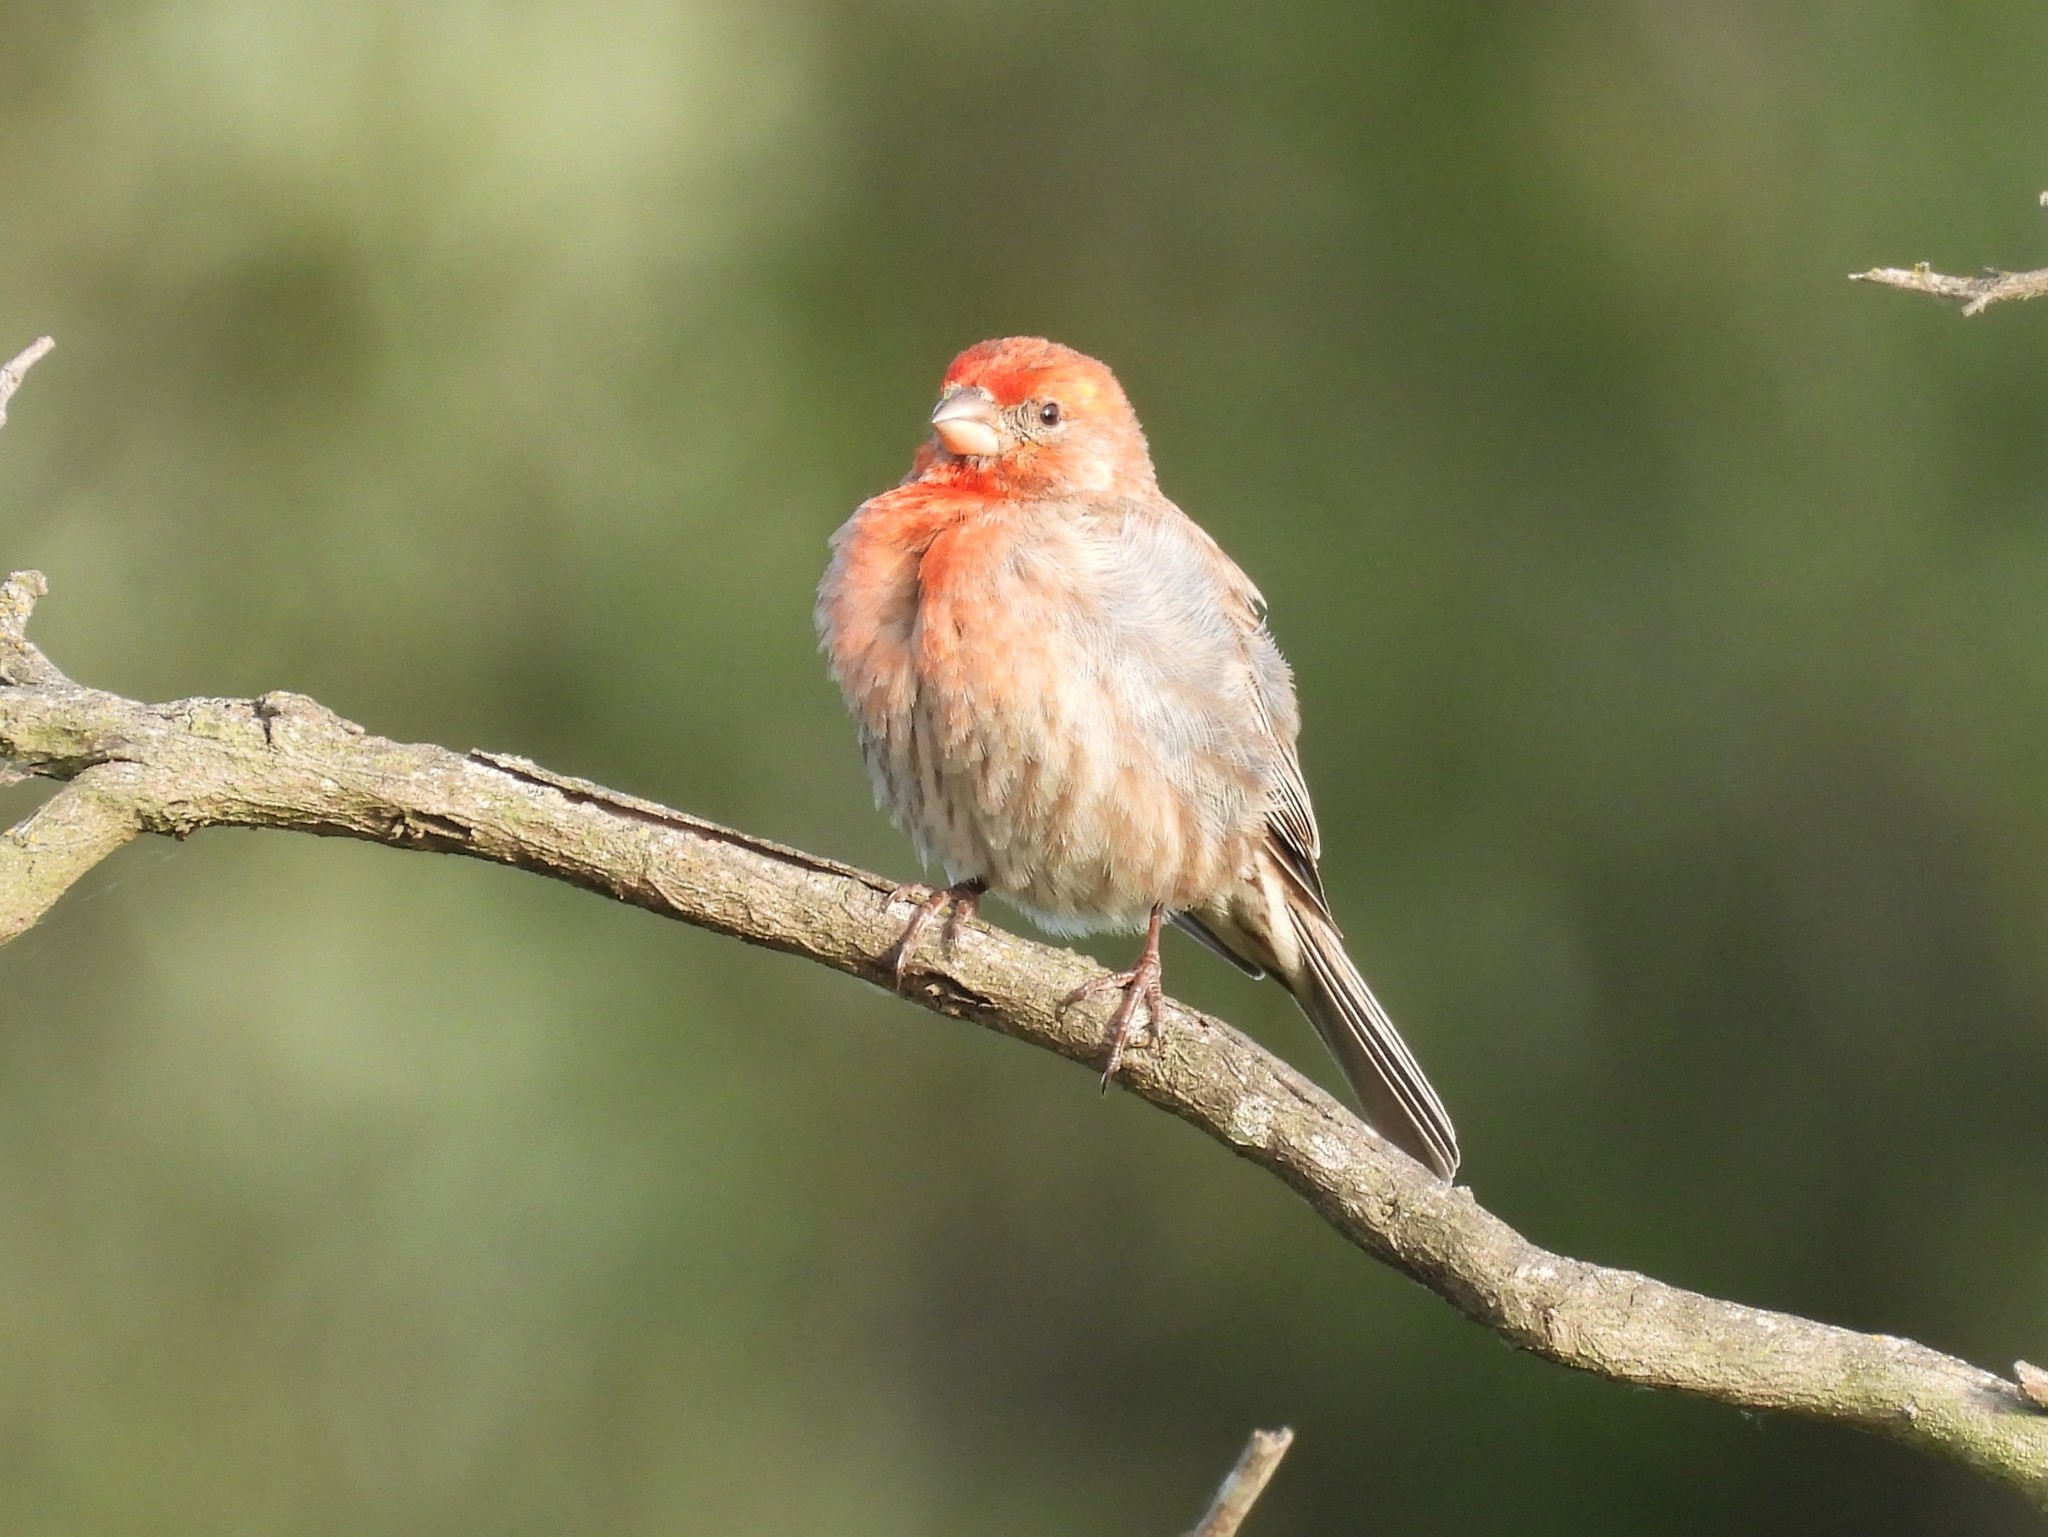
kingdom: Animalia
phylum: Chordata
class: Aves
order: Passeriformes
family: Fringillidae
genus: Haemorhous
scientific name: Haemorhous mexicanus
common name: House finch
